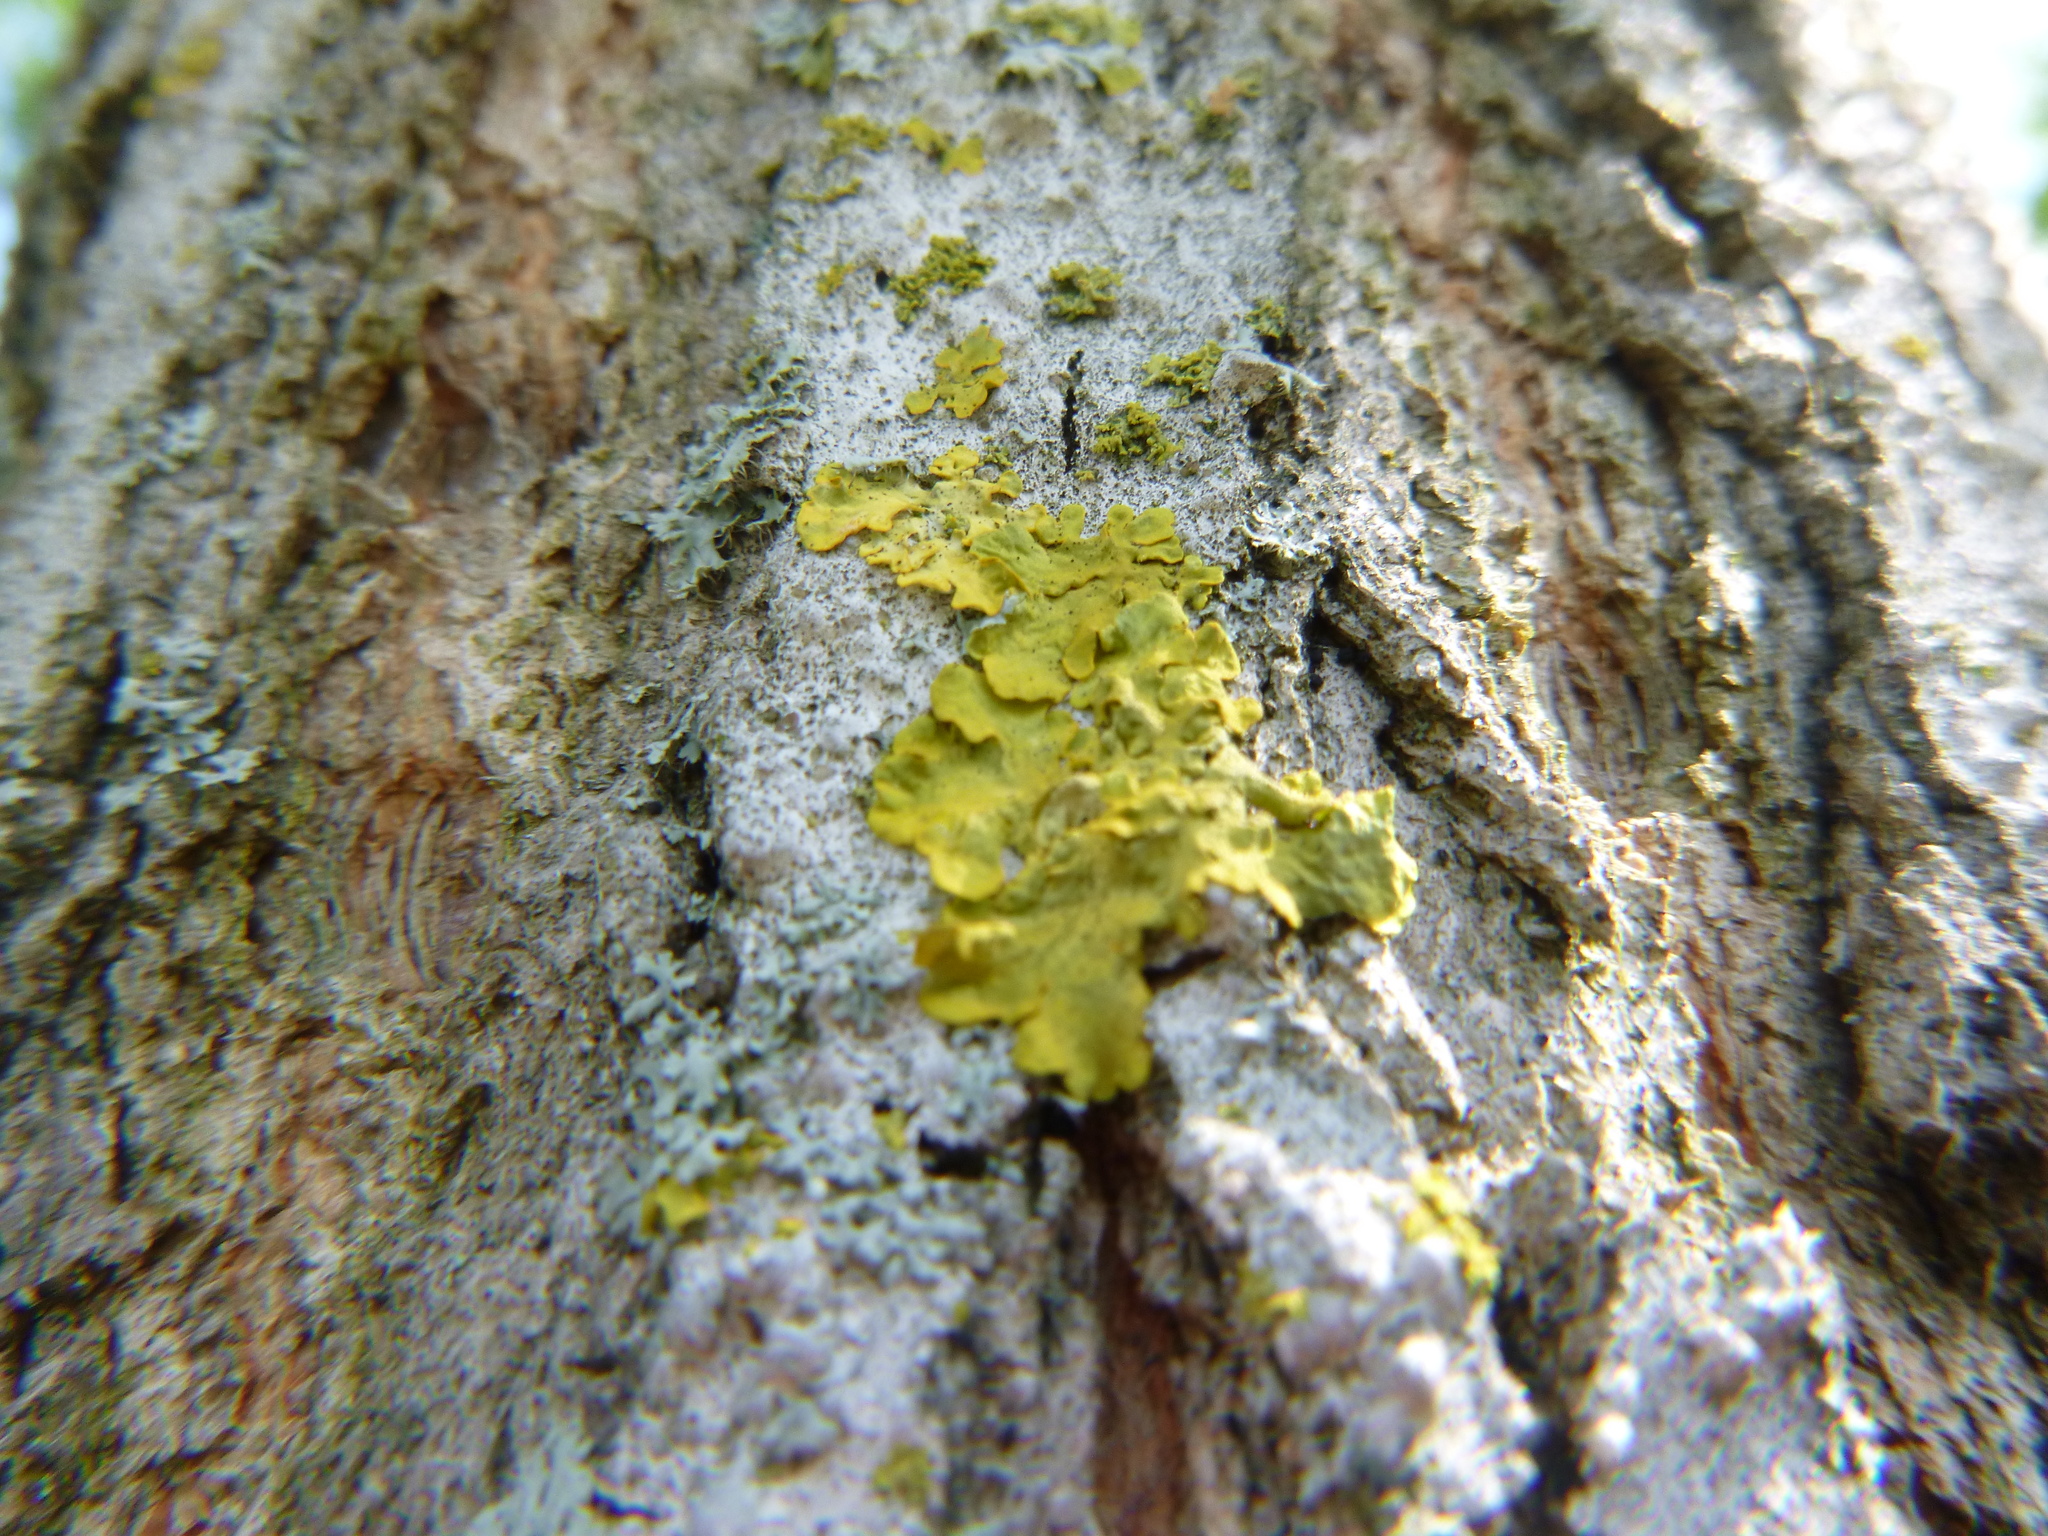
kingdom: Fungi
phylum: Ascomycota
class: Lecanoromycetes
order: Teloschistales
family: Teloschistaceae
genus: Xanthoria
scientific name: Xanthoria parietina
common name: Common orange lichen
